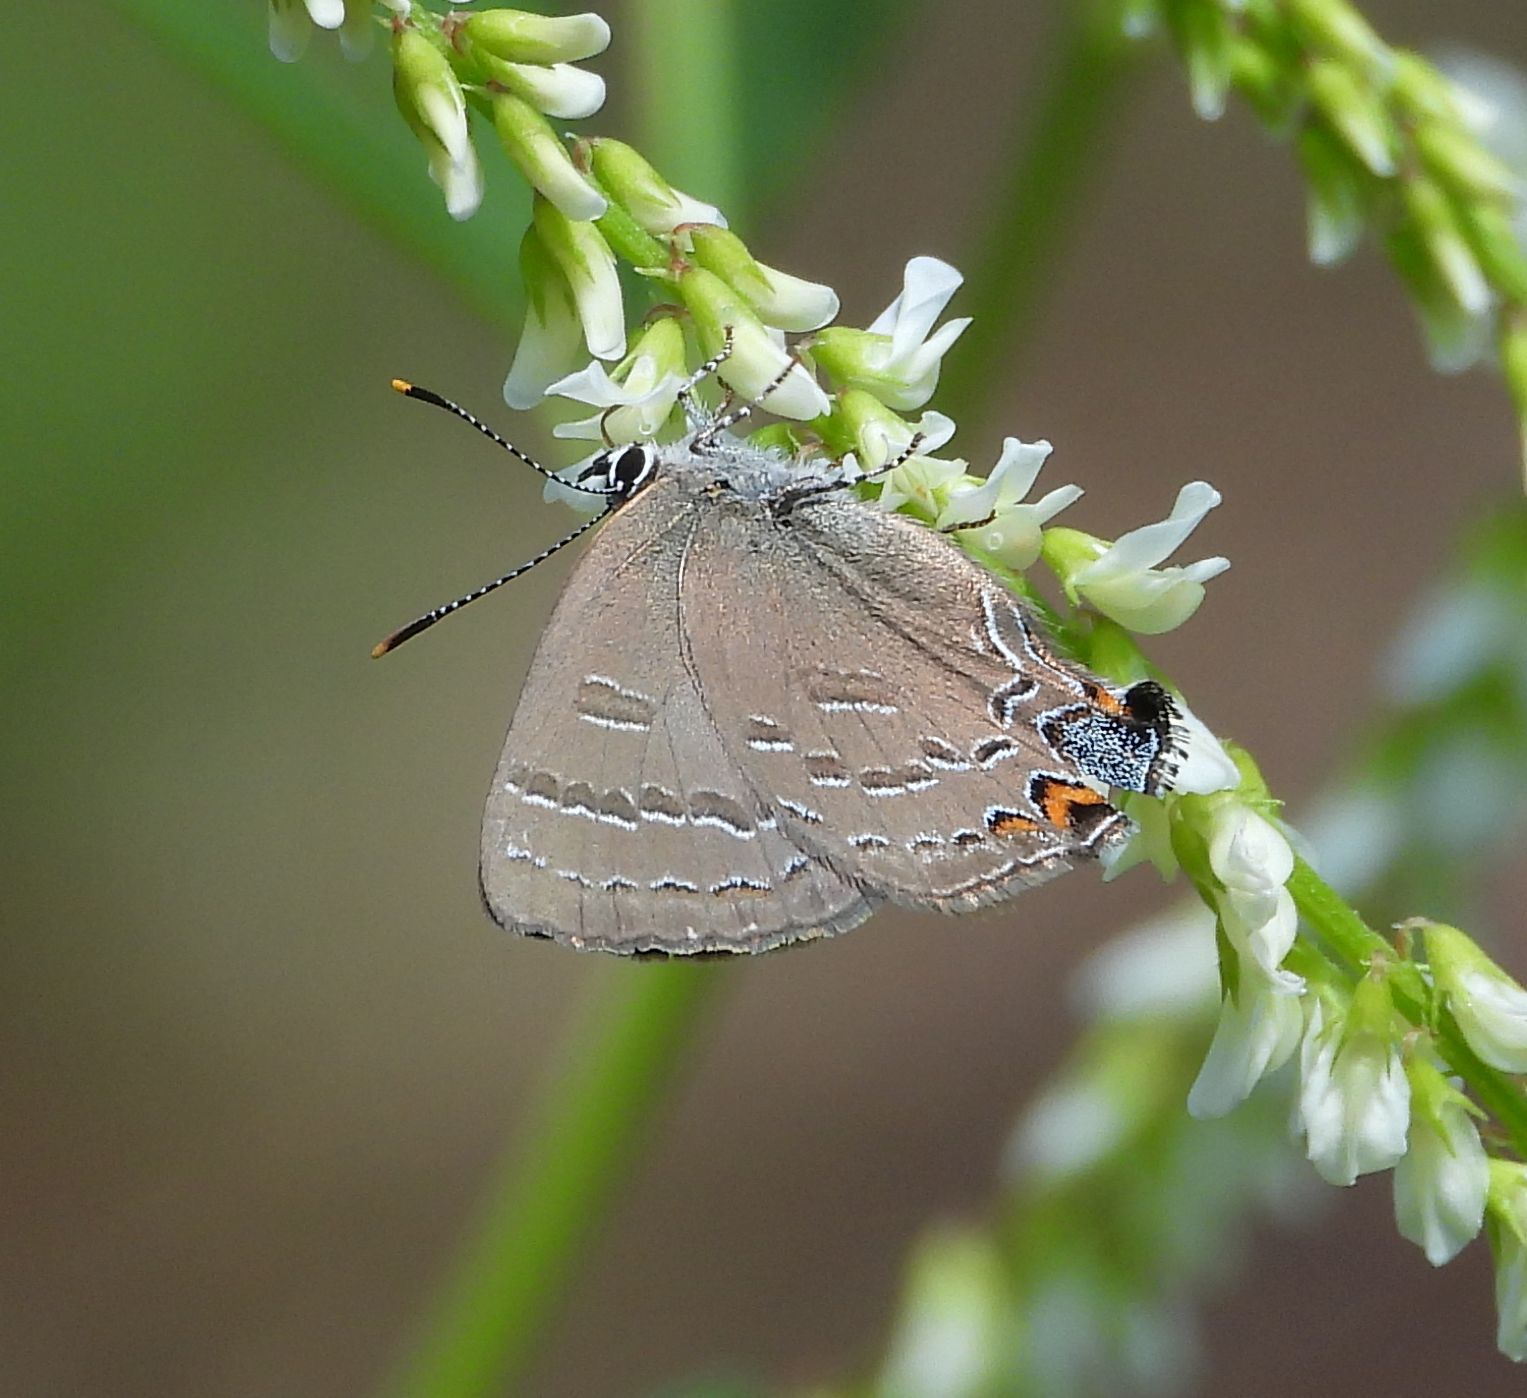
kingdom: Animalia
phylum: Arthropoda
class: Insecta
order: Lepidoptera
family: Lycaenidae
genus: Satyrium
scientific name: Satyrium calanus
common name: Banded hairstreak
